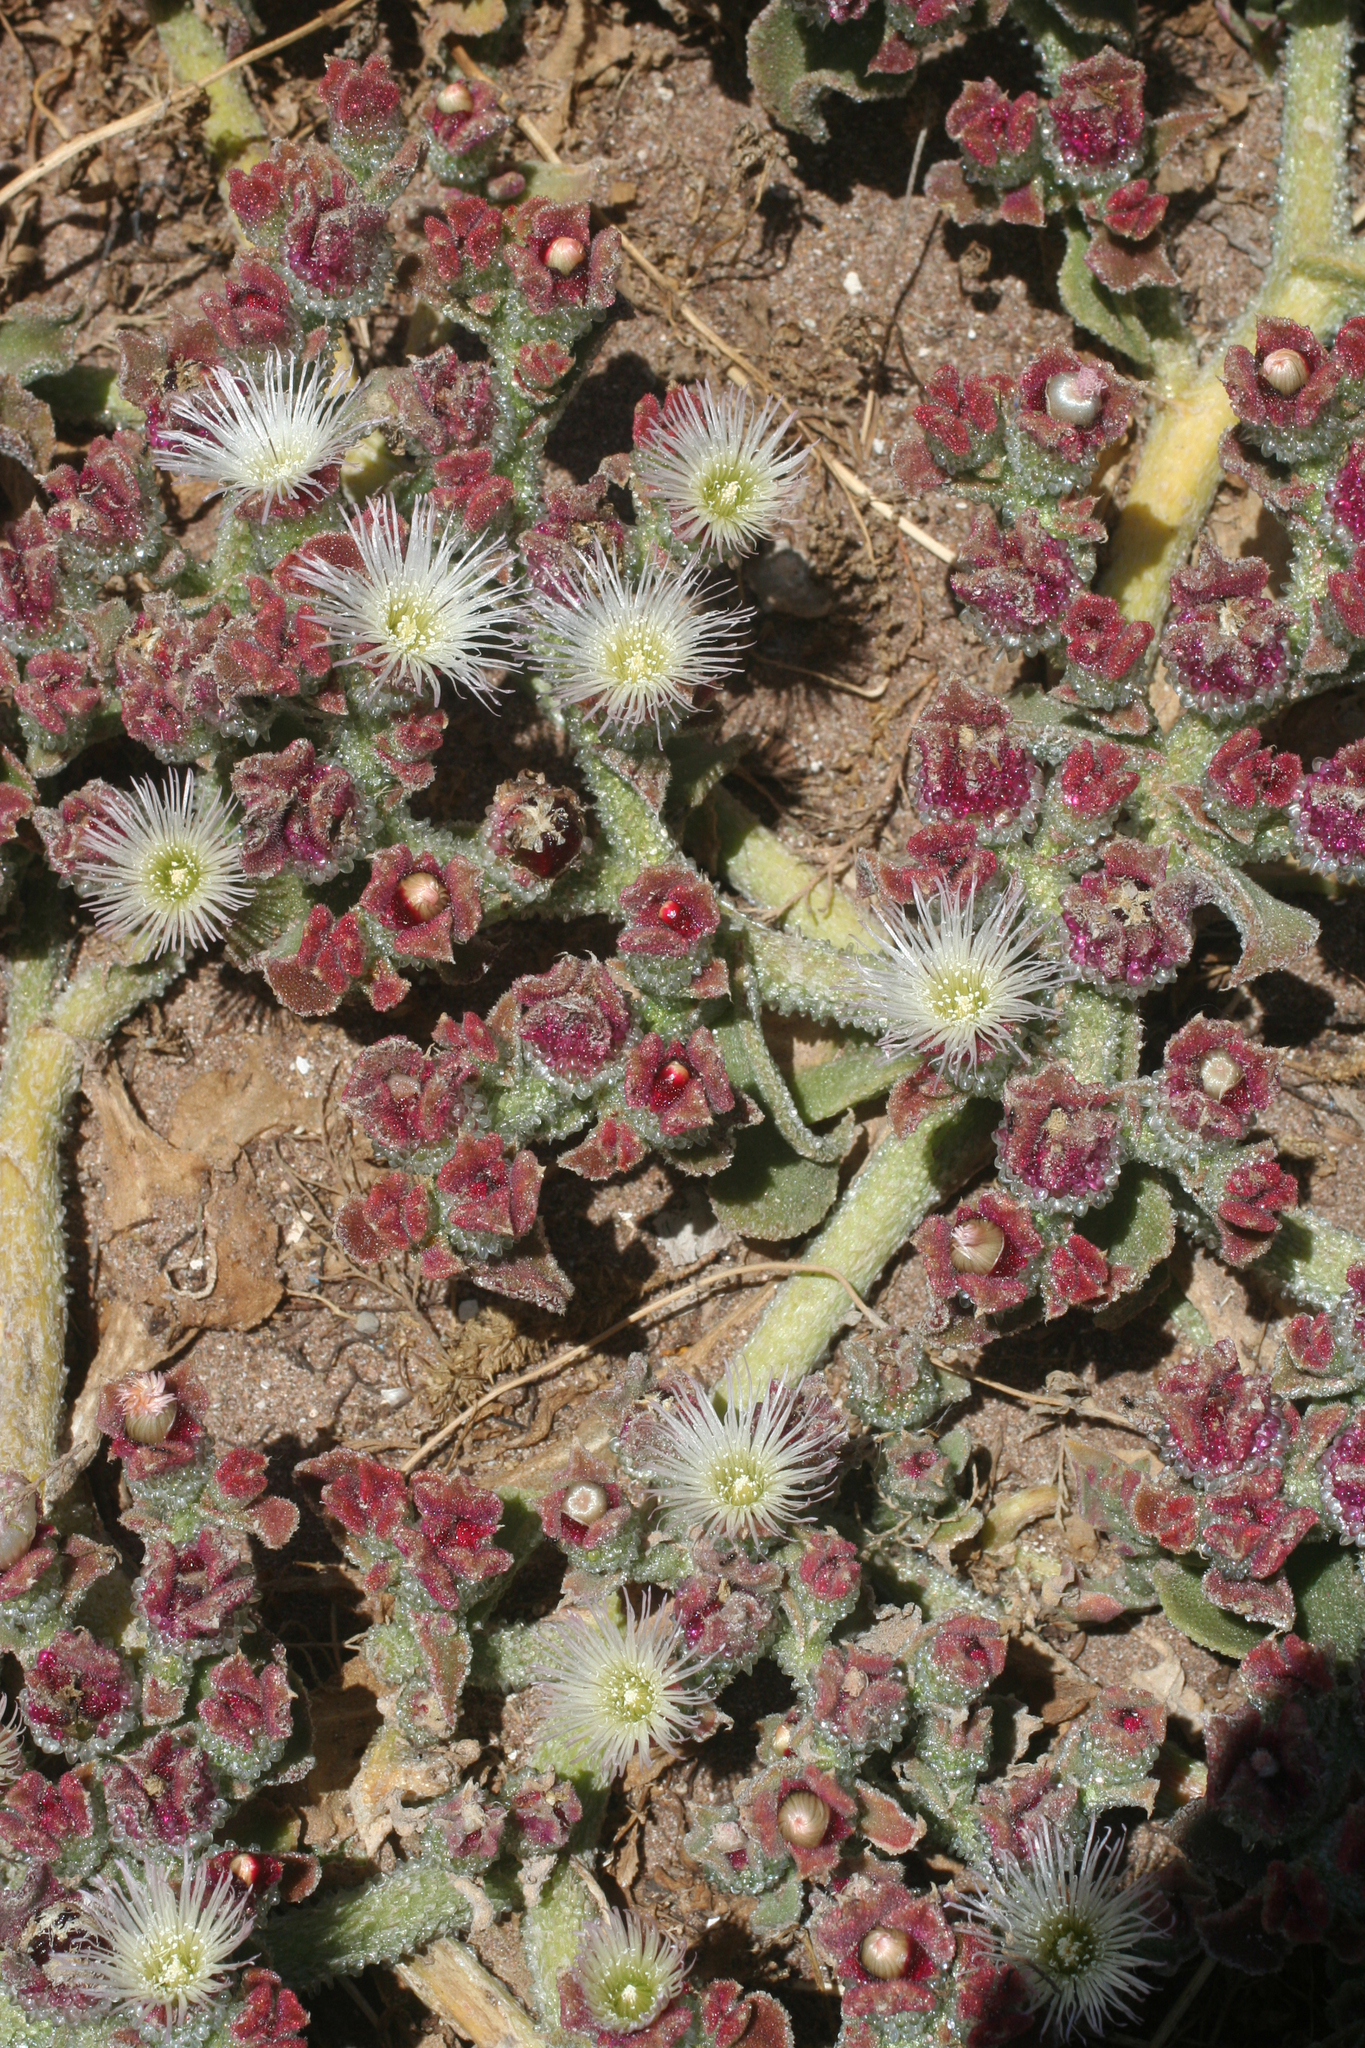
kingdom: Plantae
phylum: Tracheophyta
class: Magnoliopsida
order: Caryophyllales
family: Aizoaceae
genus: Mesembryanthemum
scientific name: Mesembryanthemum crystallinum
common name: Common iceplant
